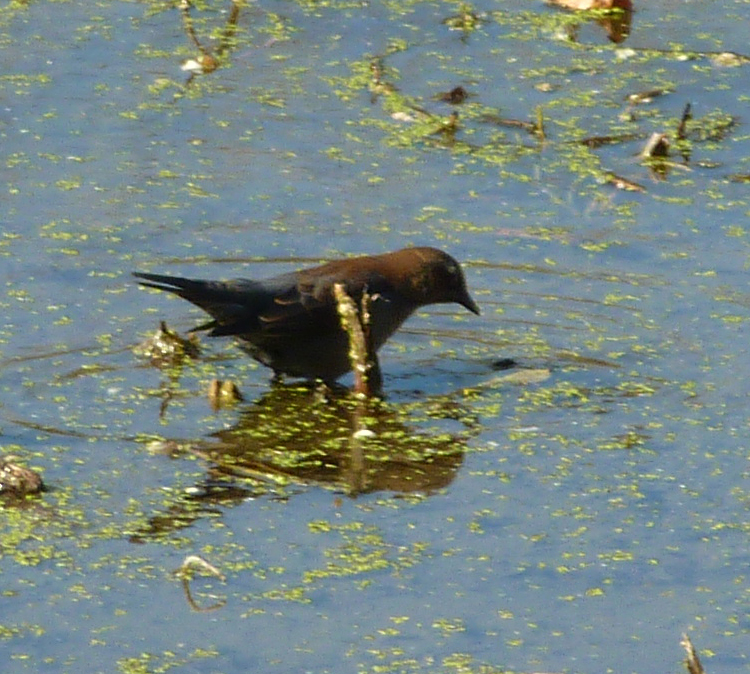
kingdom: Animalia
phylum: Chordata
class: Aves
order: Passeriformes
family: Icteridae
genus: Euphagus
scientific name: Euphagus carolinus
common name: Rusty blackbird
